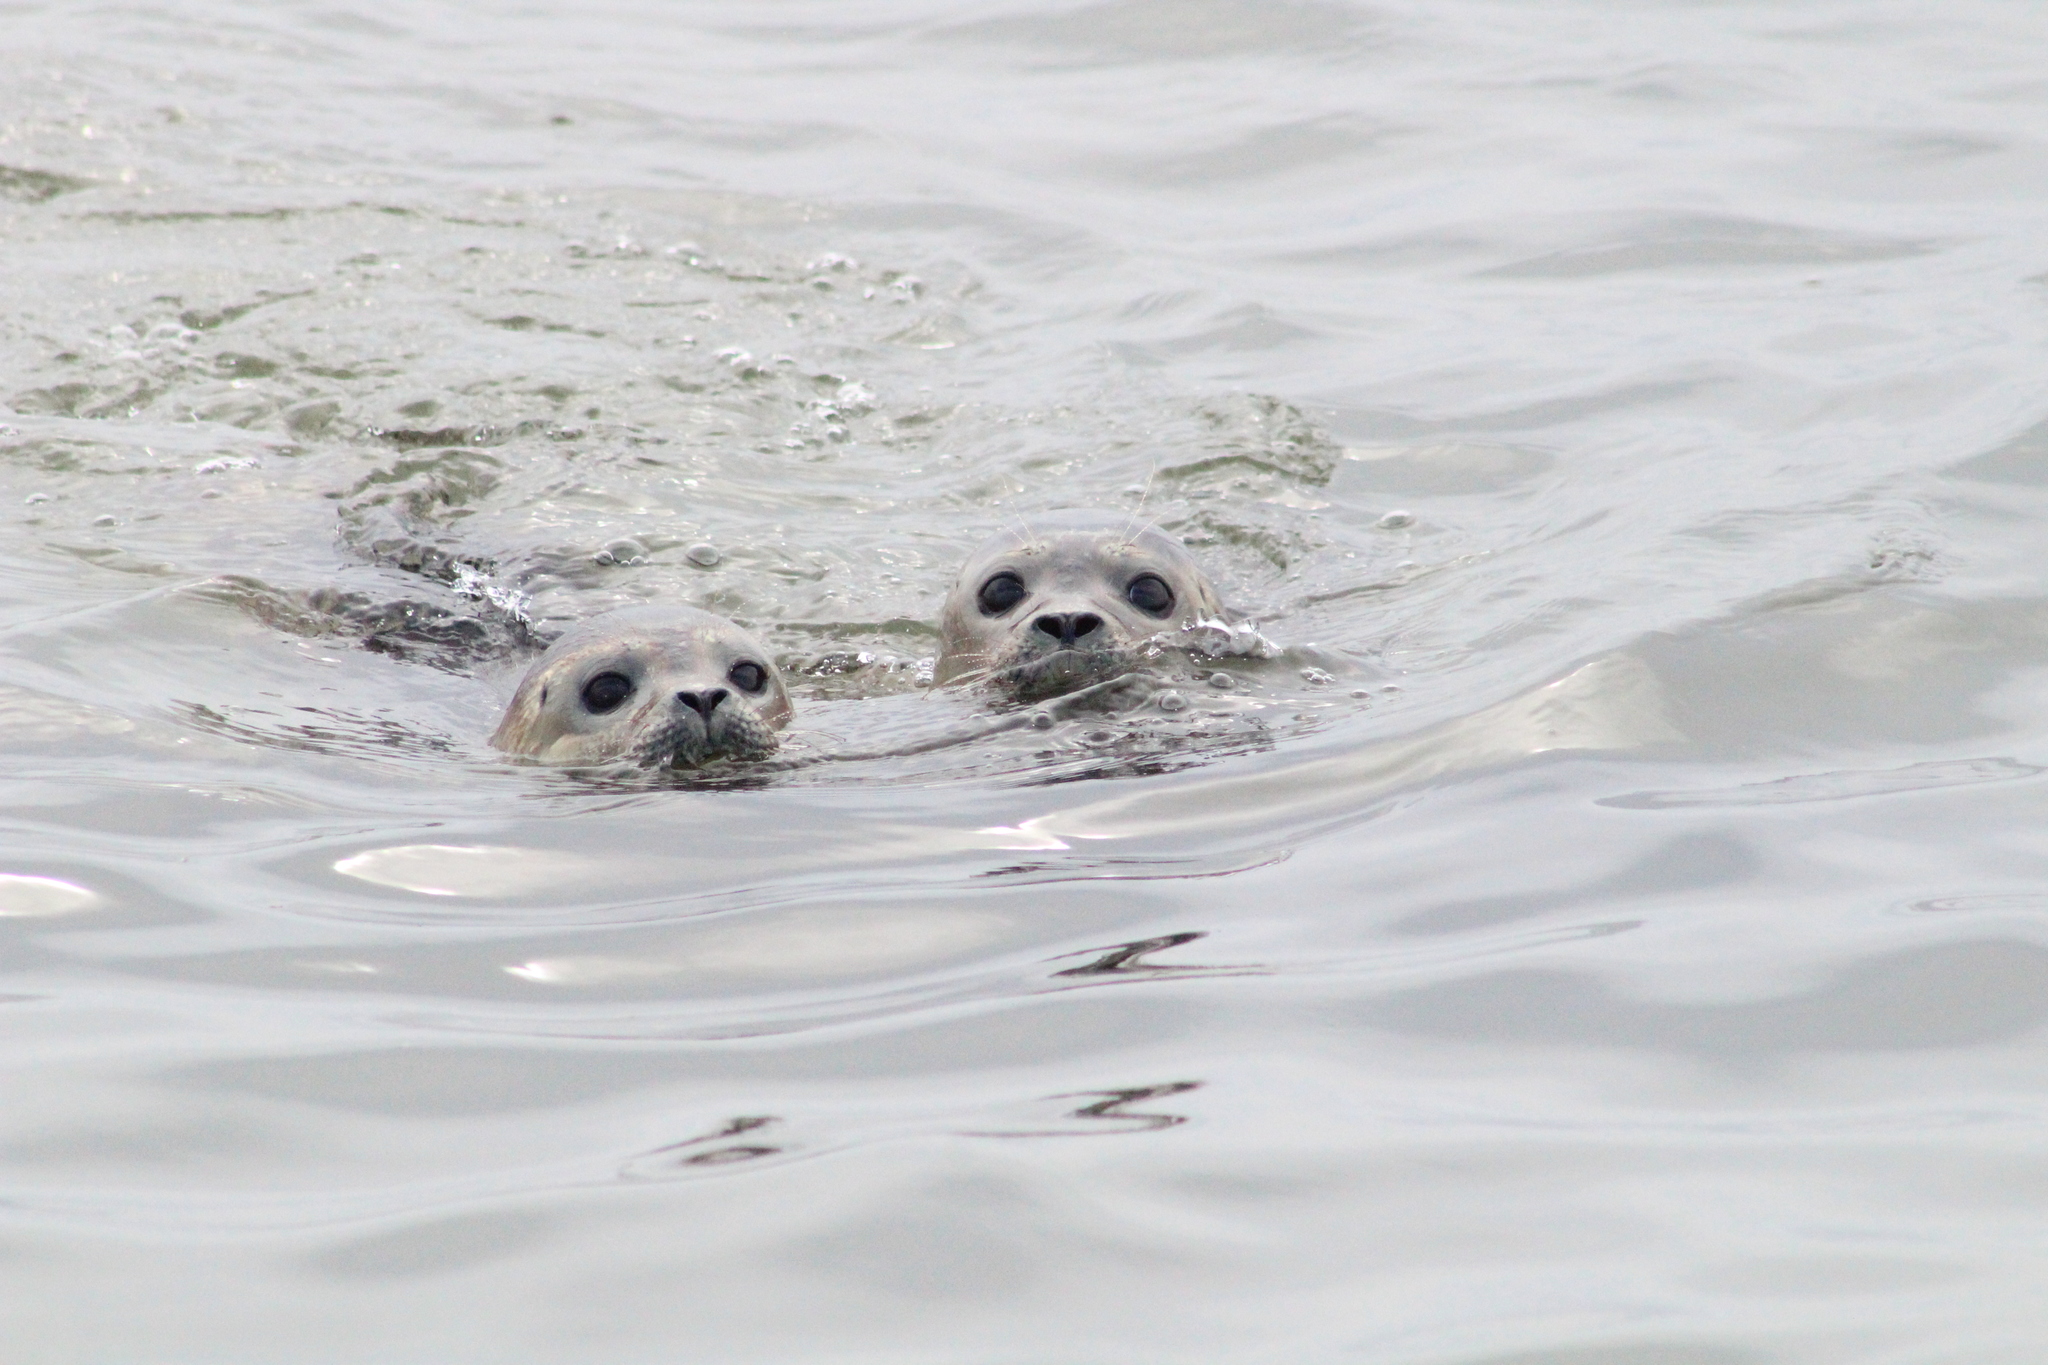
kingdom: Animalia
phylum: Chordata
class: Mammalia
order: Carnivora
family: Phocidae
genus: Phoca
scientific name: Phoca vitulina
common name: Harbor seal
